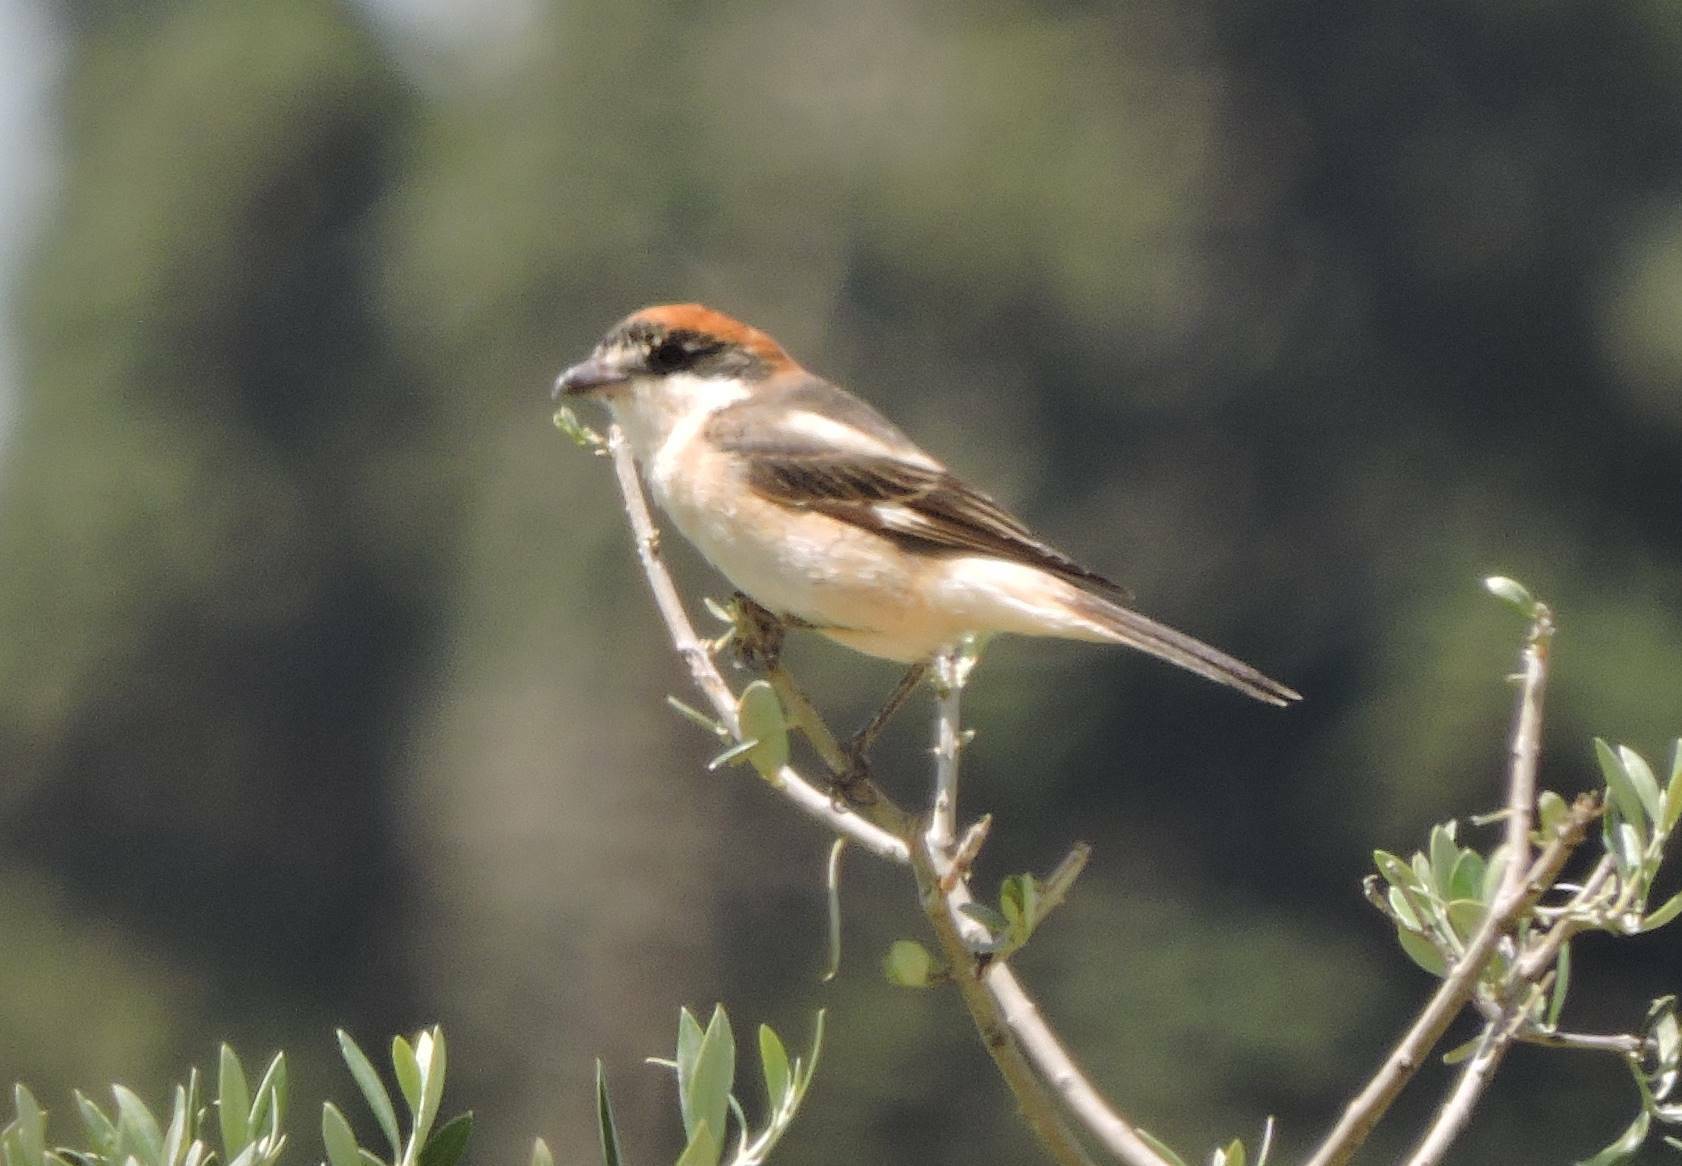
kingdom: Animalia
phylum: Chordata
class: Aves
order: Passeriformes
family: Laniidae
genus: Lanius
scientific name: Lanius senator
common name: Woodchat shrike
